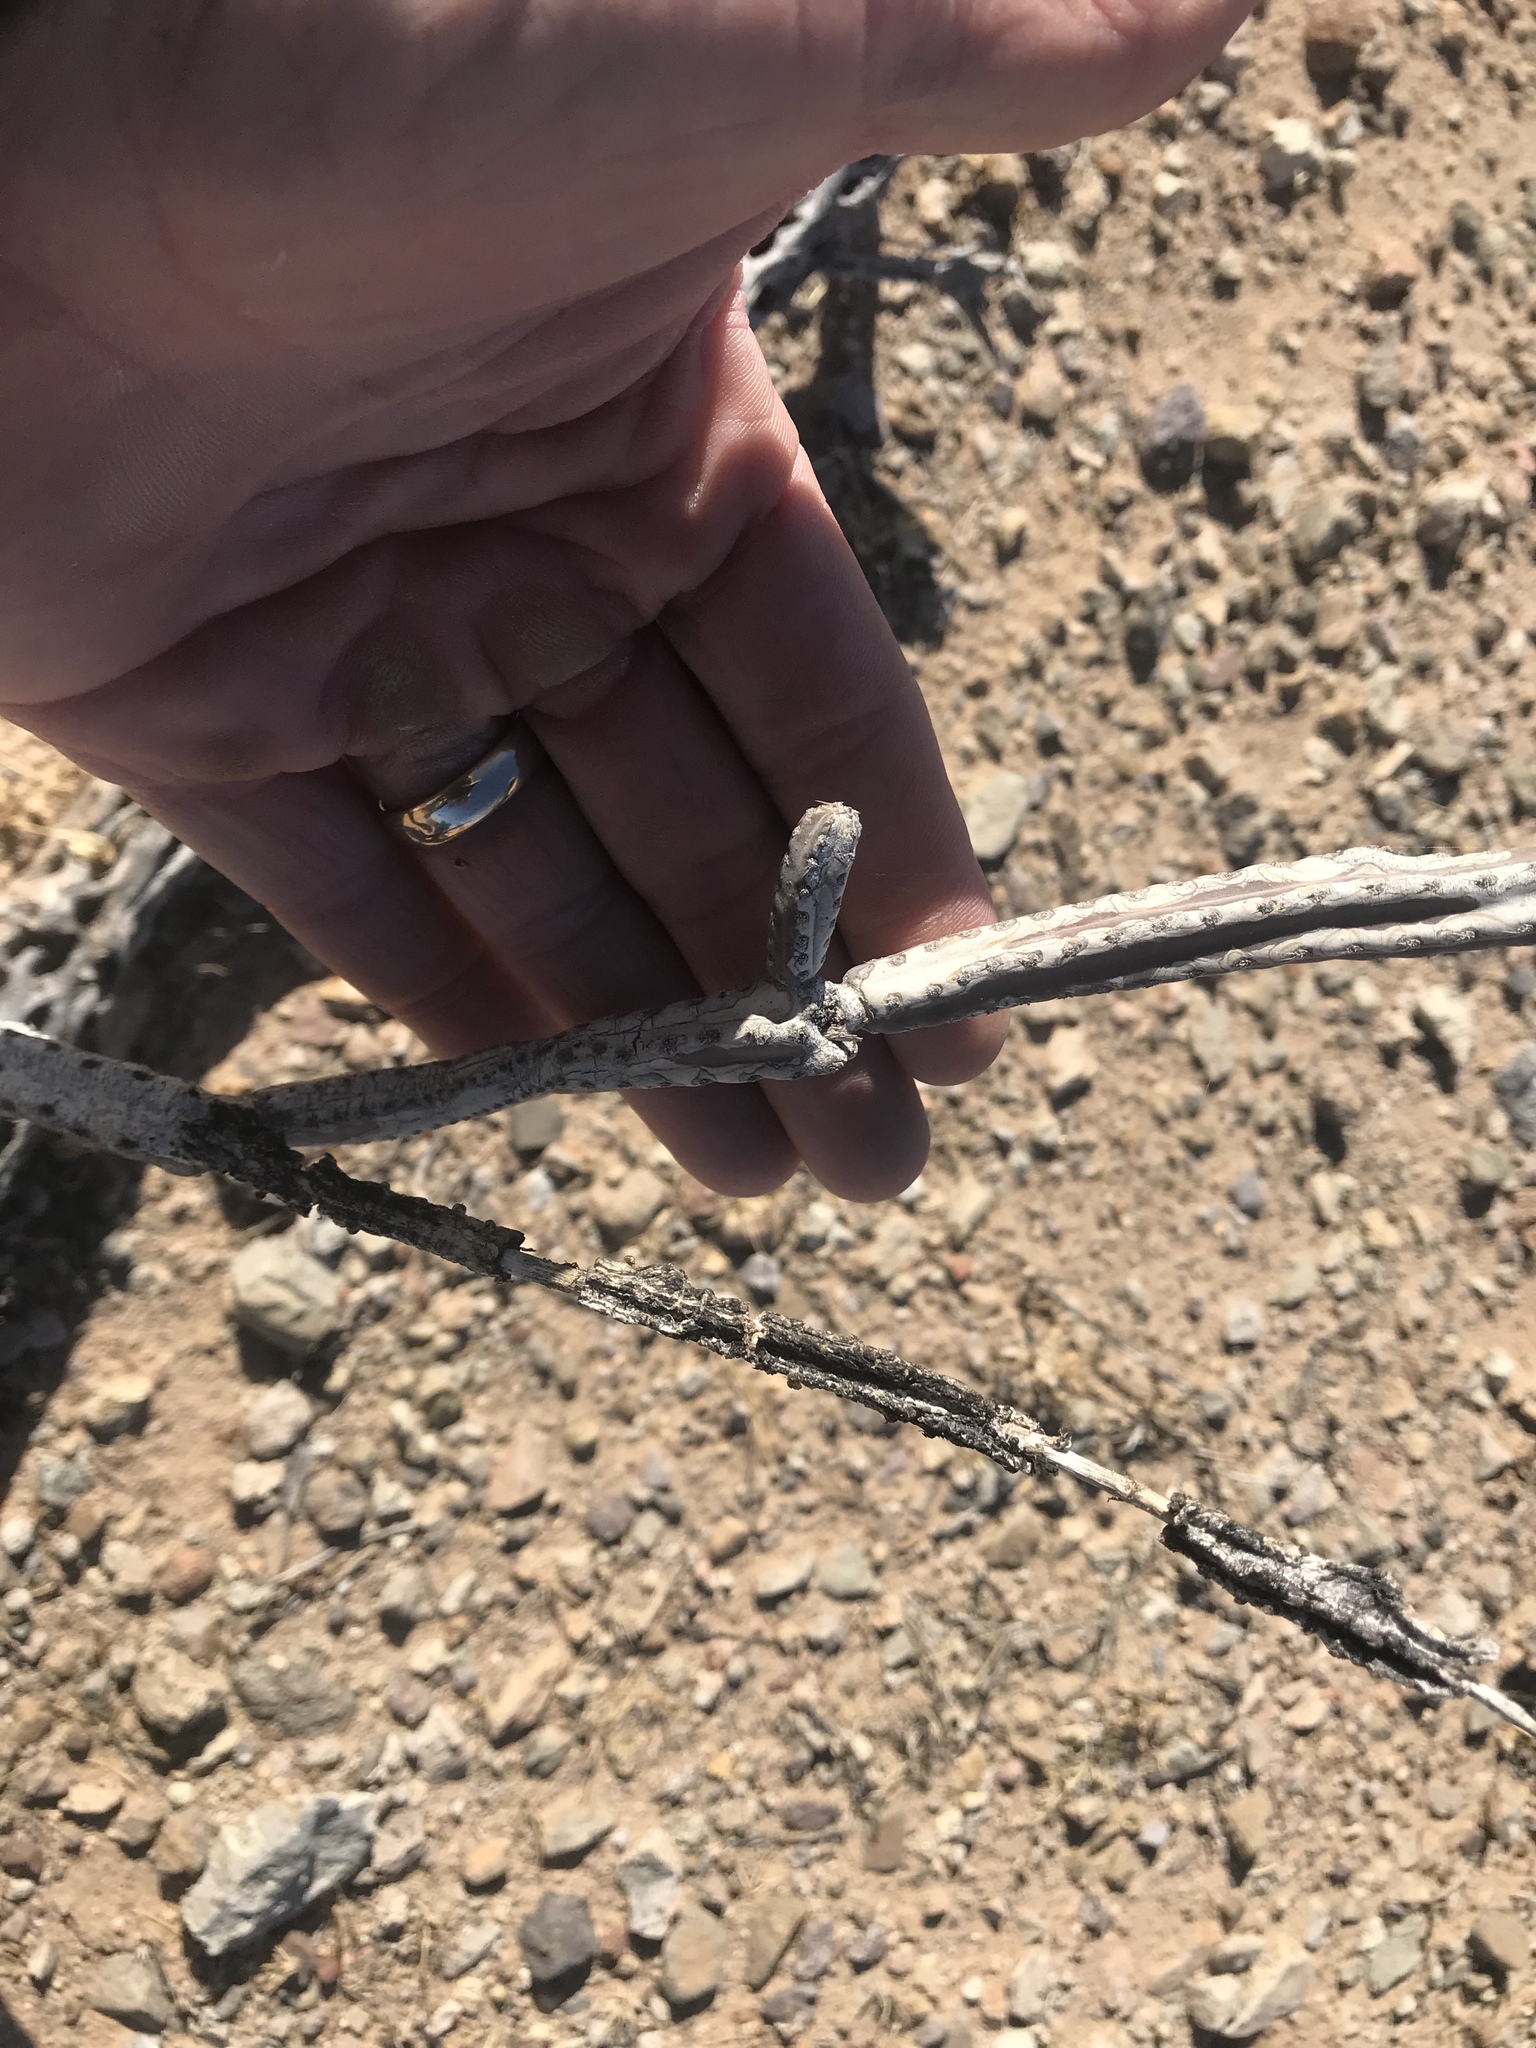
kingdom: Plantae
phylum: Tracheophyta
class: Magnoliopsida
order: Caryophyllales
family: Cactaceae
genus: Peniocereus
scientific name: Peniocereus greggii
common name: Desert night-blooming cereus
